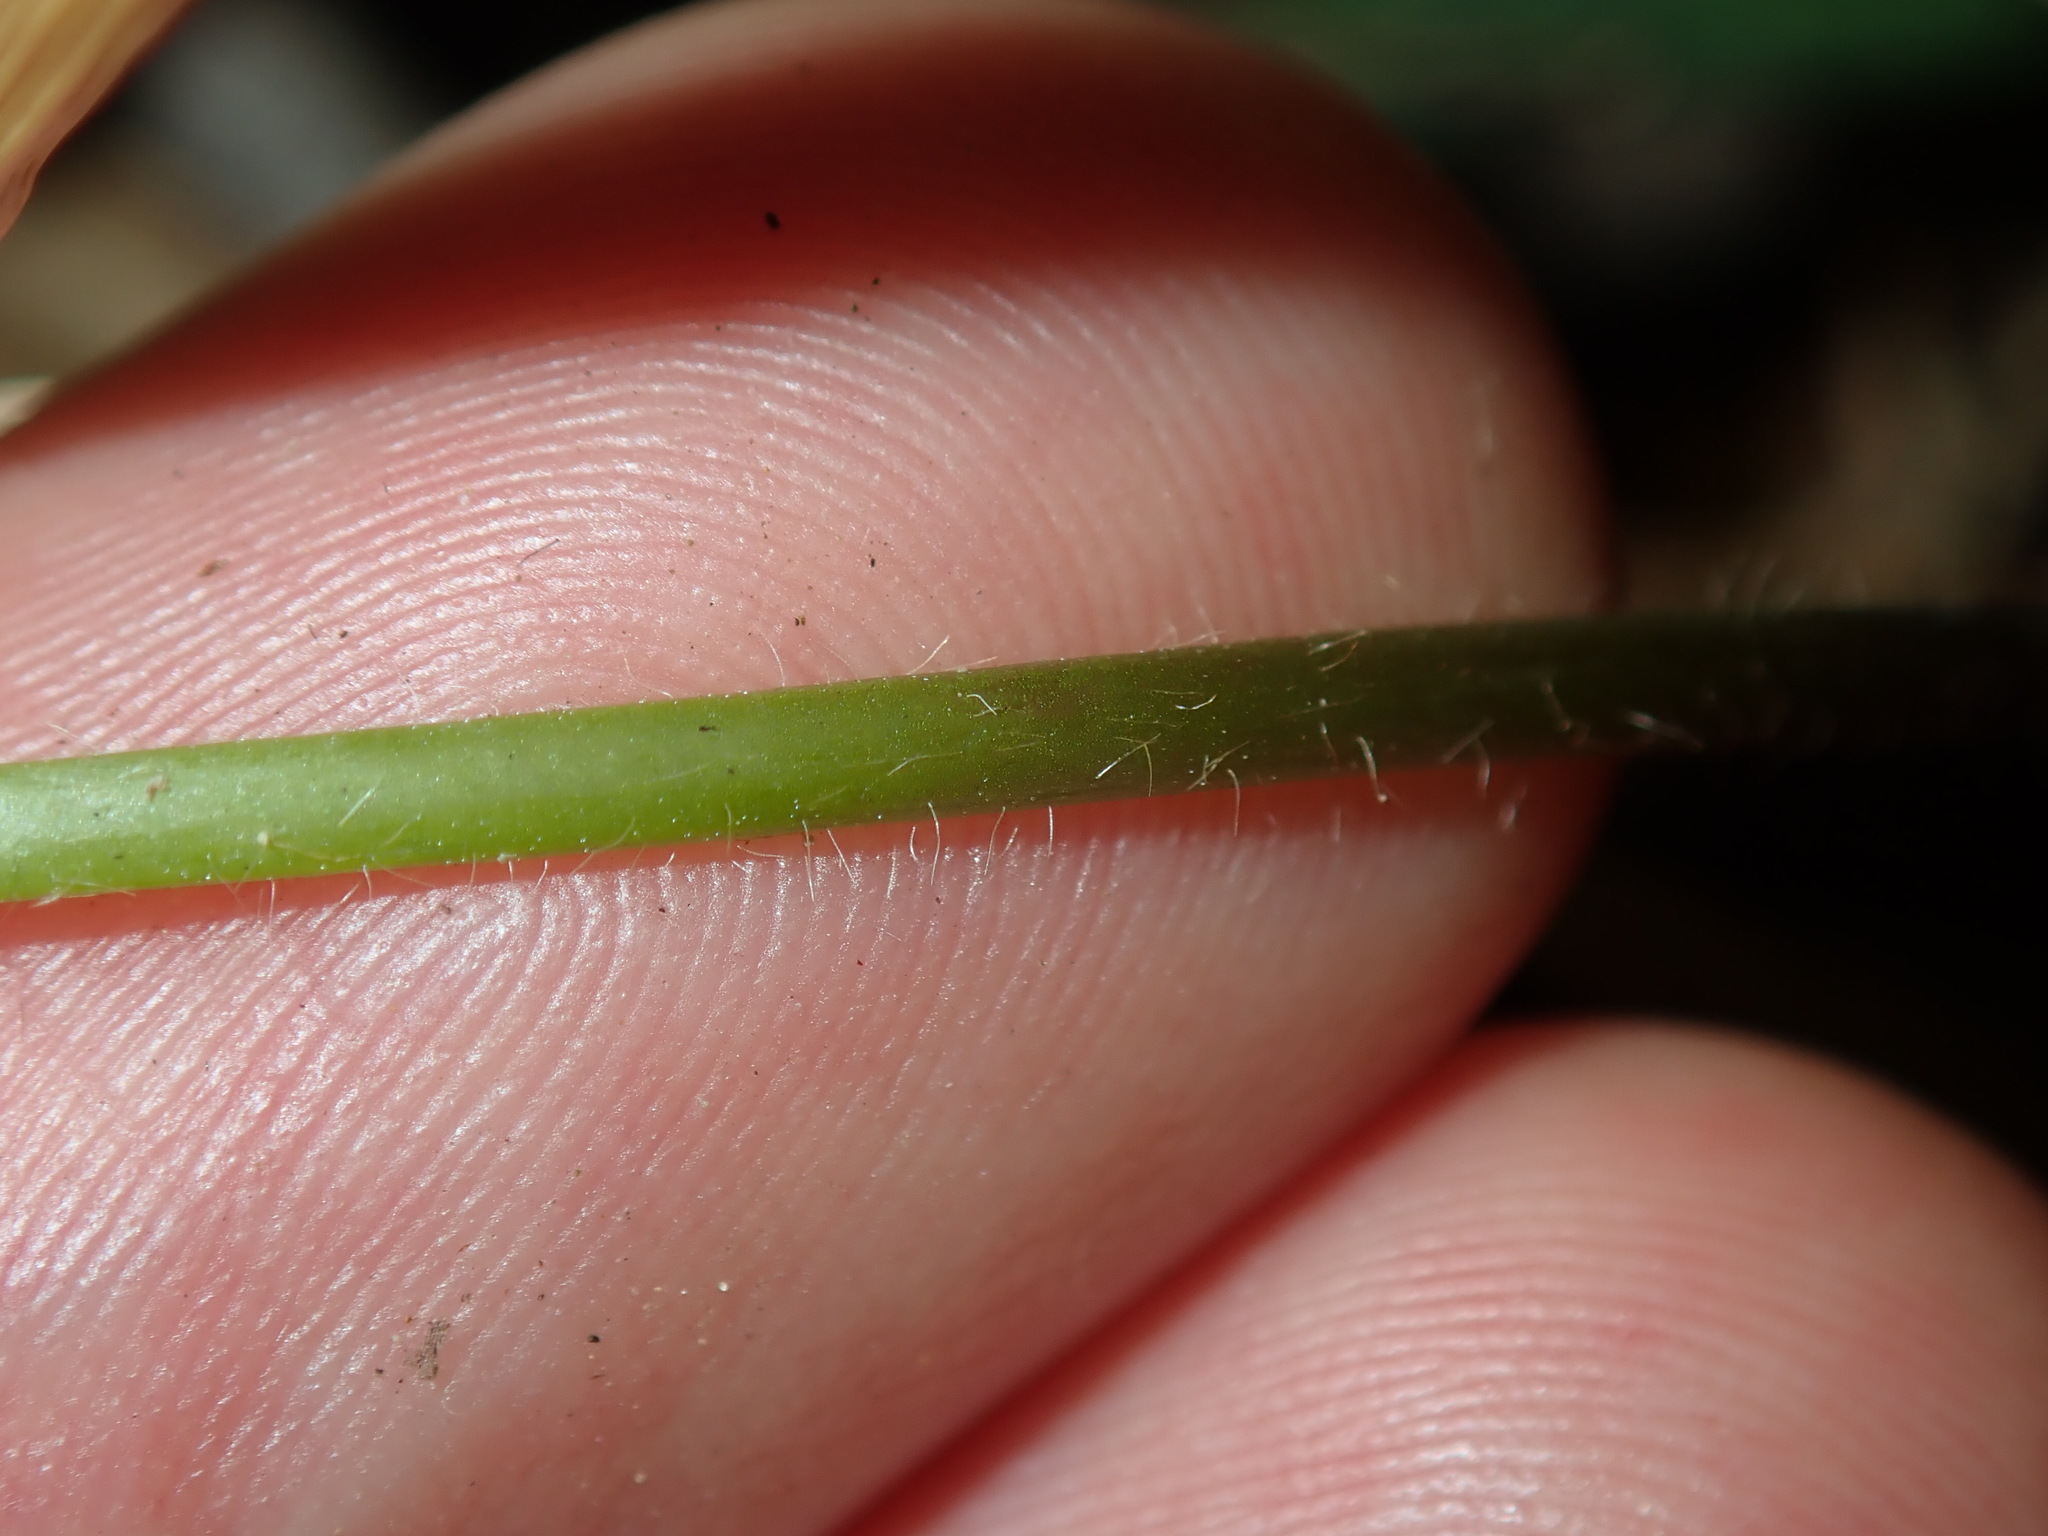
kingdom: Plantae
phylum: Tracheophyta
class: Magnoliopsida
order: Oxalidales
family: Oxalidaceae
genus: Oxalis
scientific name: Oxalis latifolia
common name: Garden pink-sorrel
